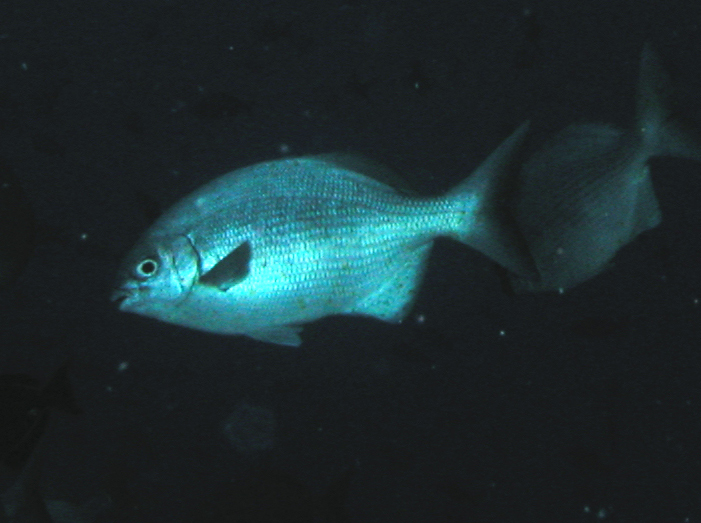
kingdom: Animalia
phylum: Chordata
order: Perciformes
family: Kyphosidae
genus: Kyphosus
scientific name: Kyphosus elegans
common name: Cortez chub
